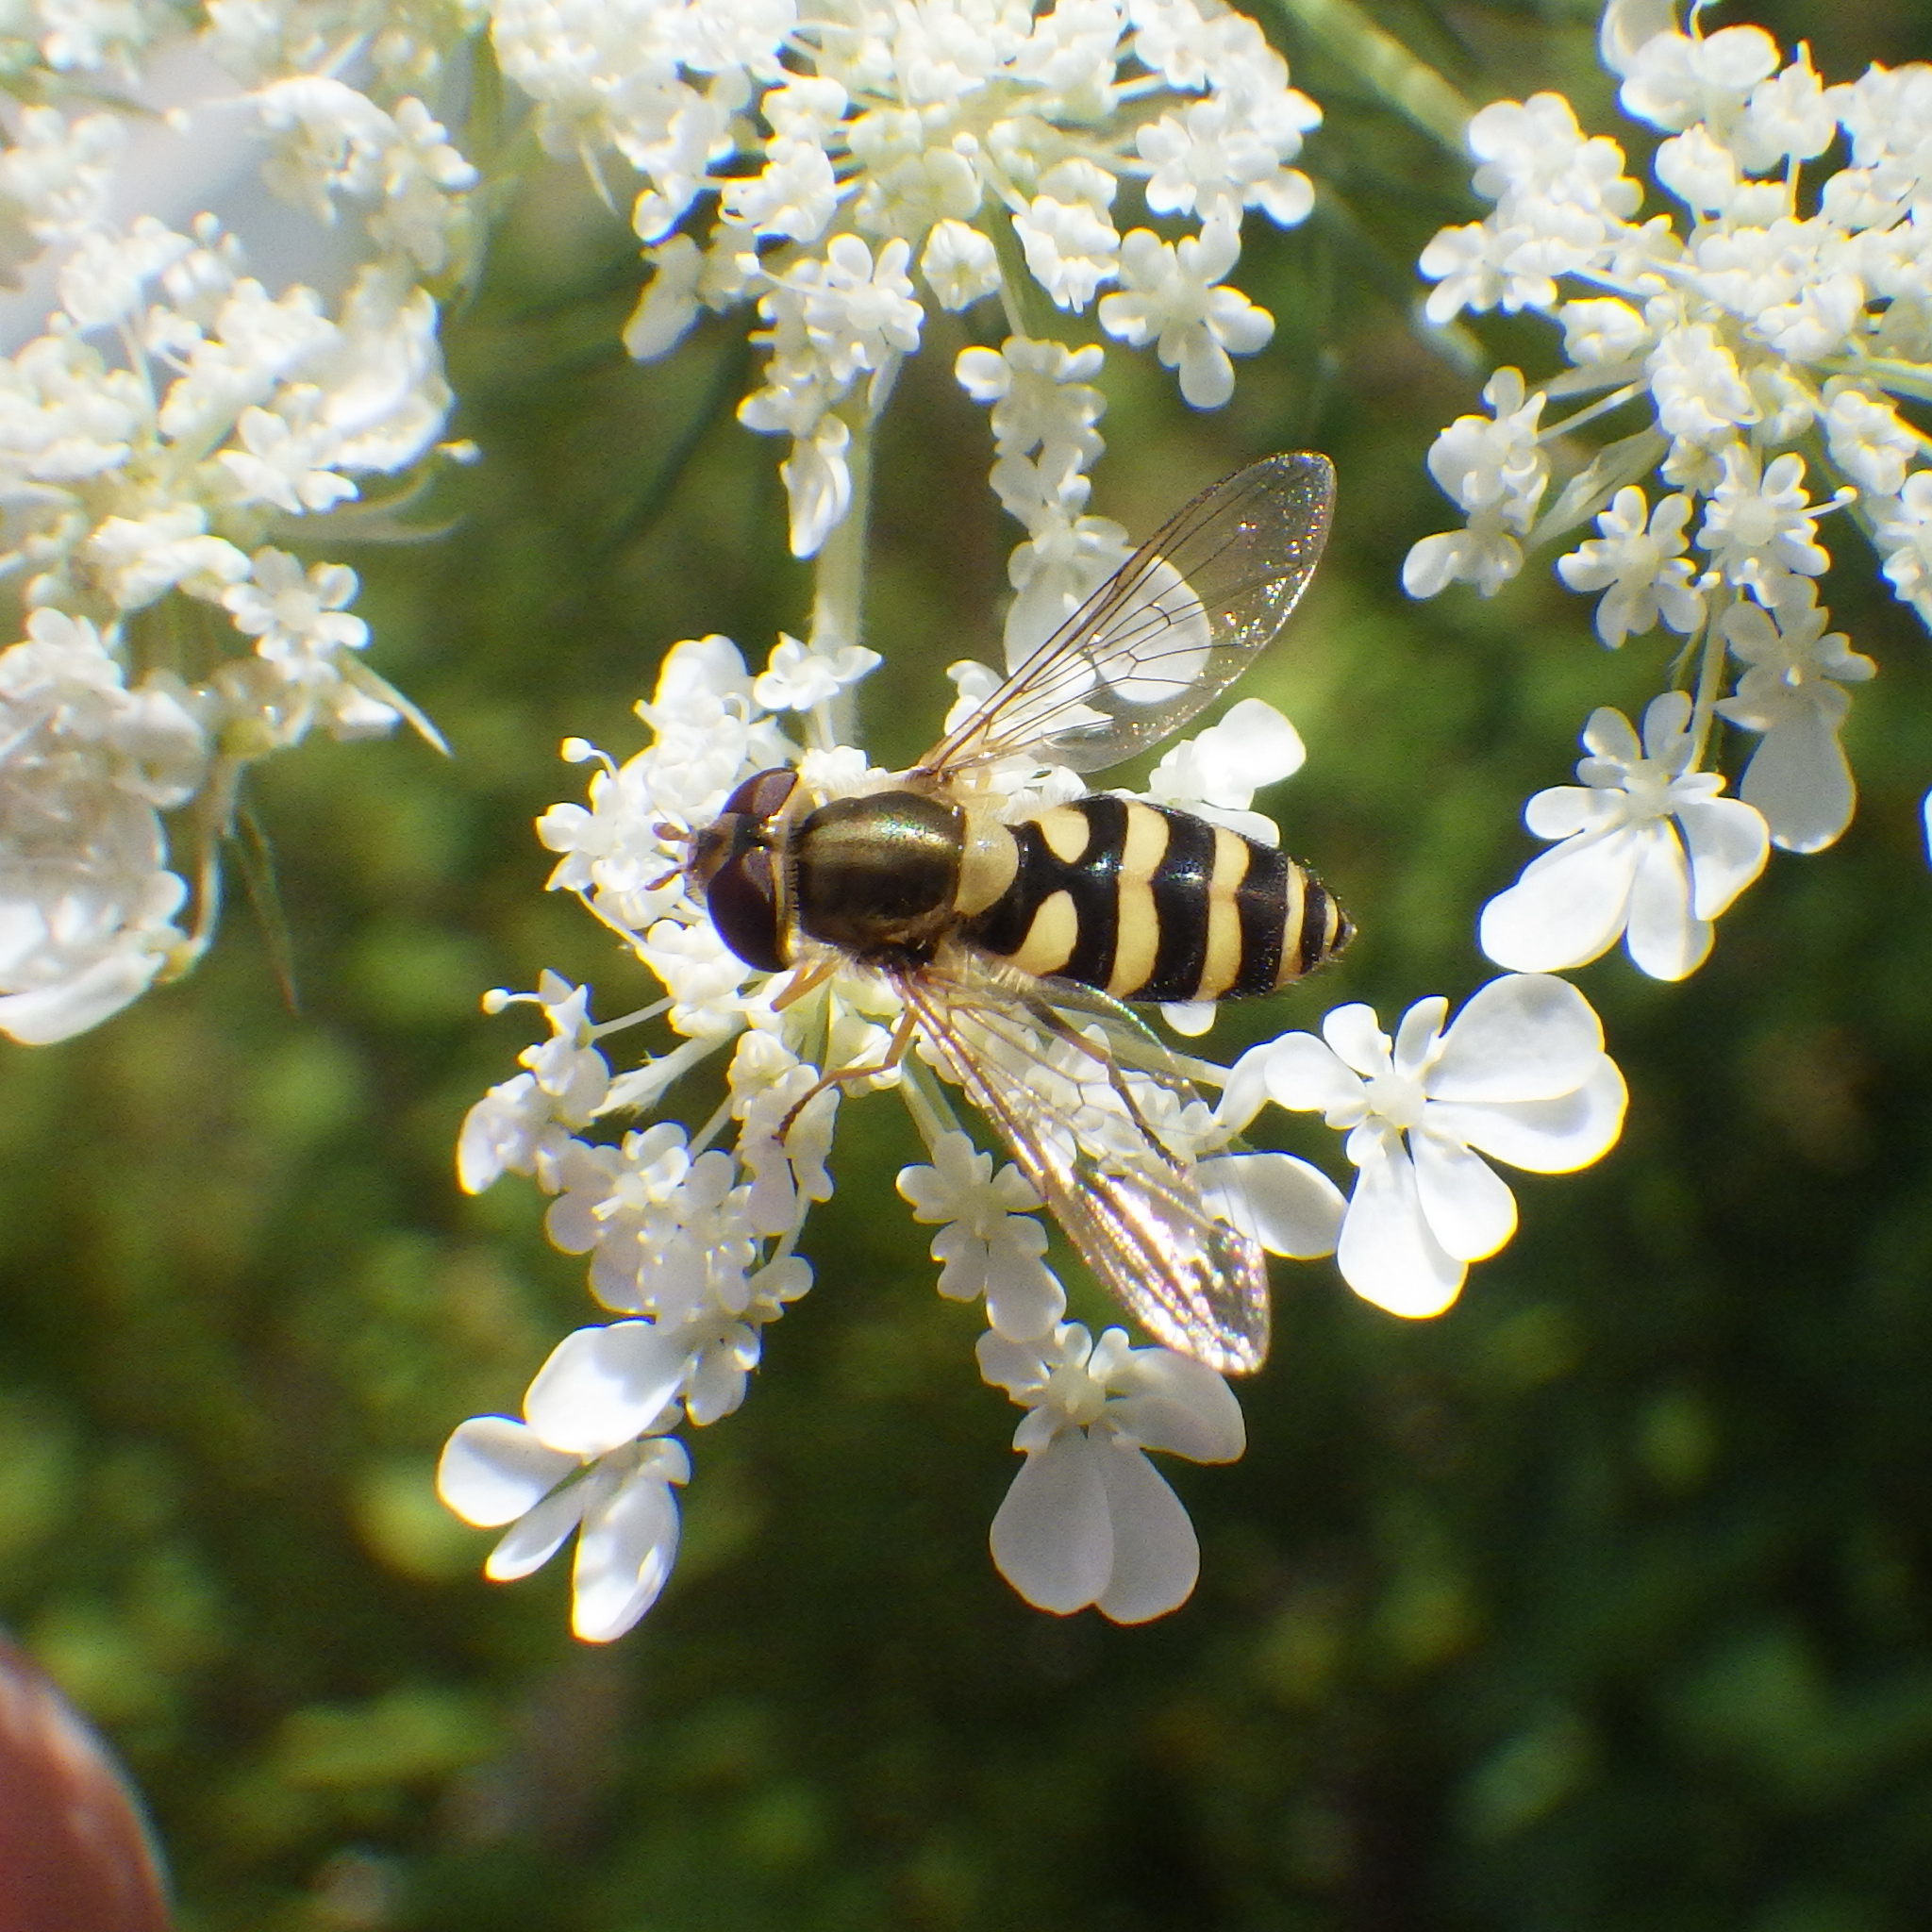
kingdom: Animalia
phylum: Arthropoda
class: Insecta
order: Diptera
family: Syrphidae
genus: Syrphus
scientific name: Syrphus
